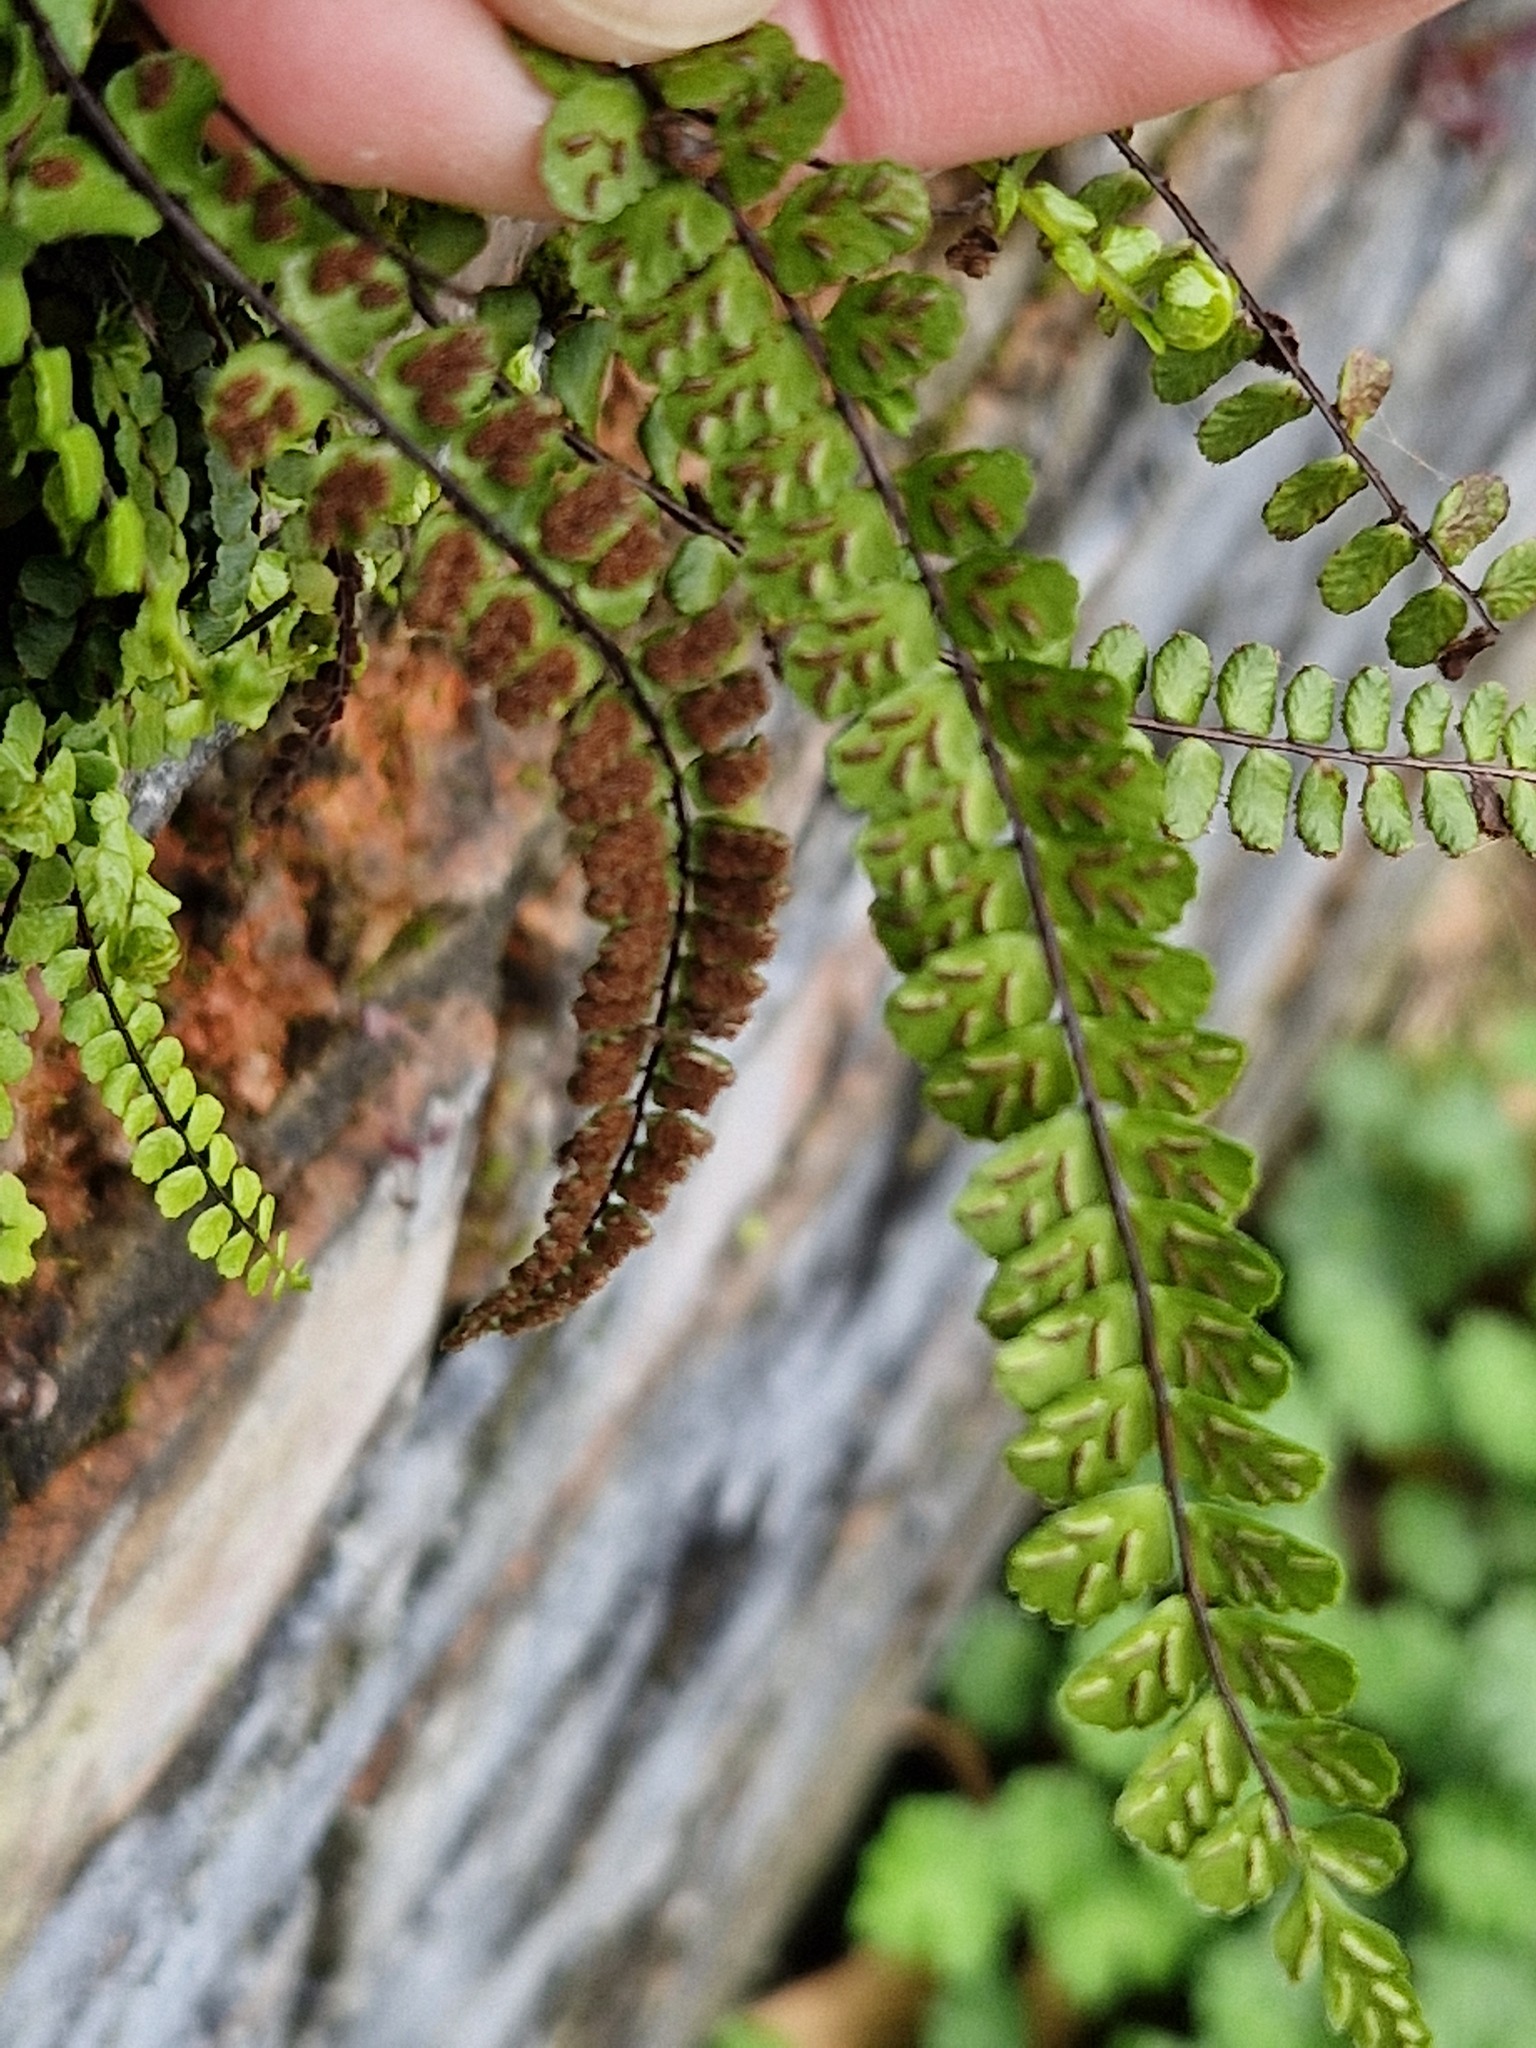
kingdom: Plantae
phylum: Tracheophyta
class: Polypodiopsida
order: Polypodiales
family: Aspleniaceae
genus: Asplenium
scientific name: Asplenium trichomanes
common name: Maidenhair spleenwort
